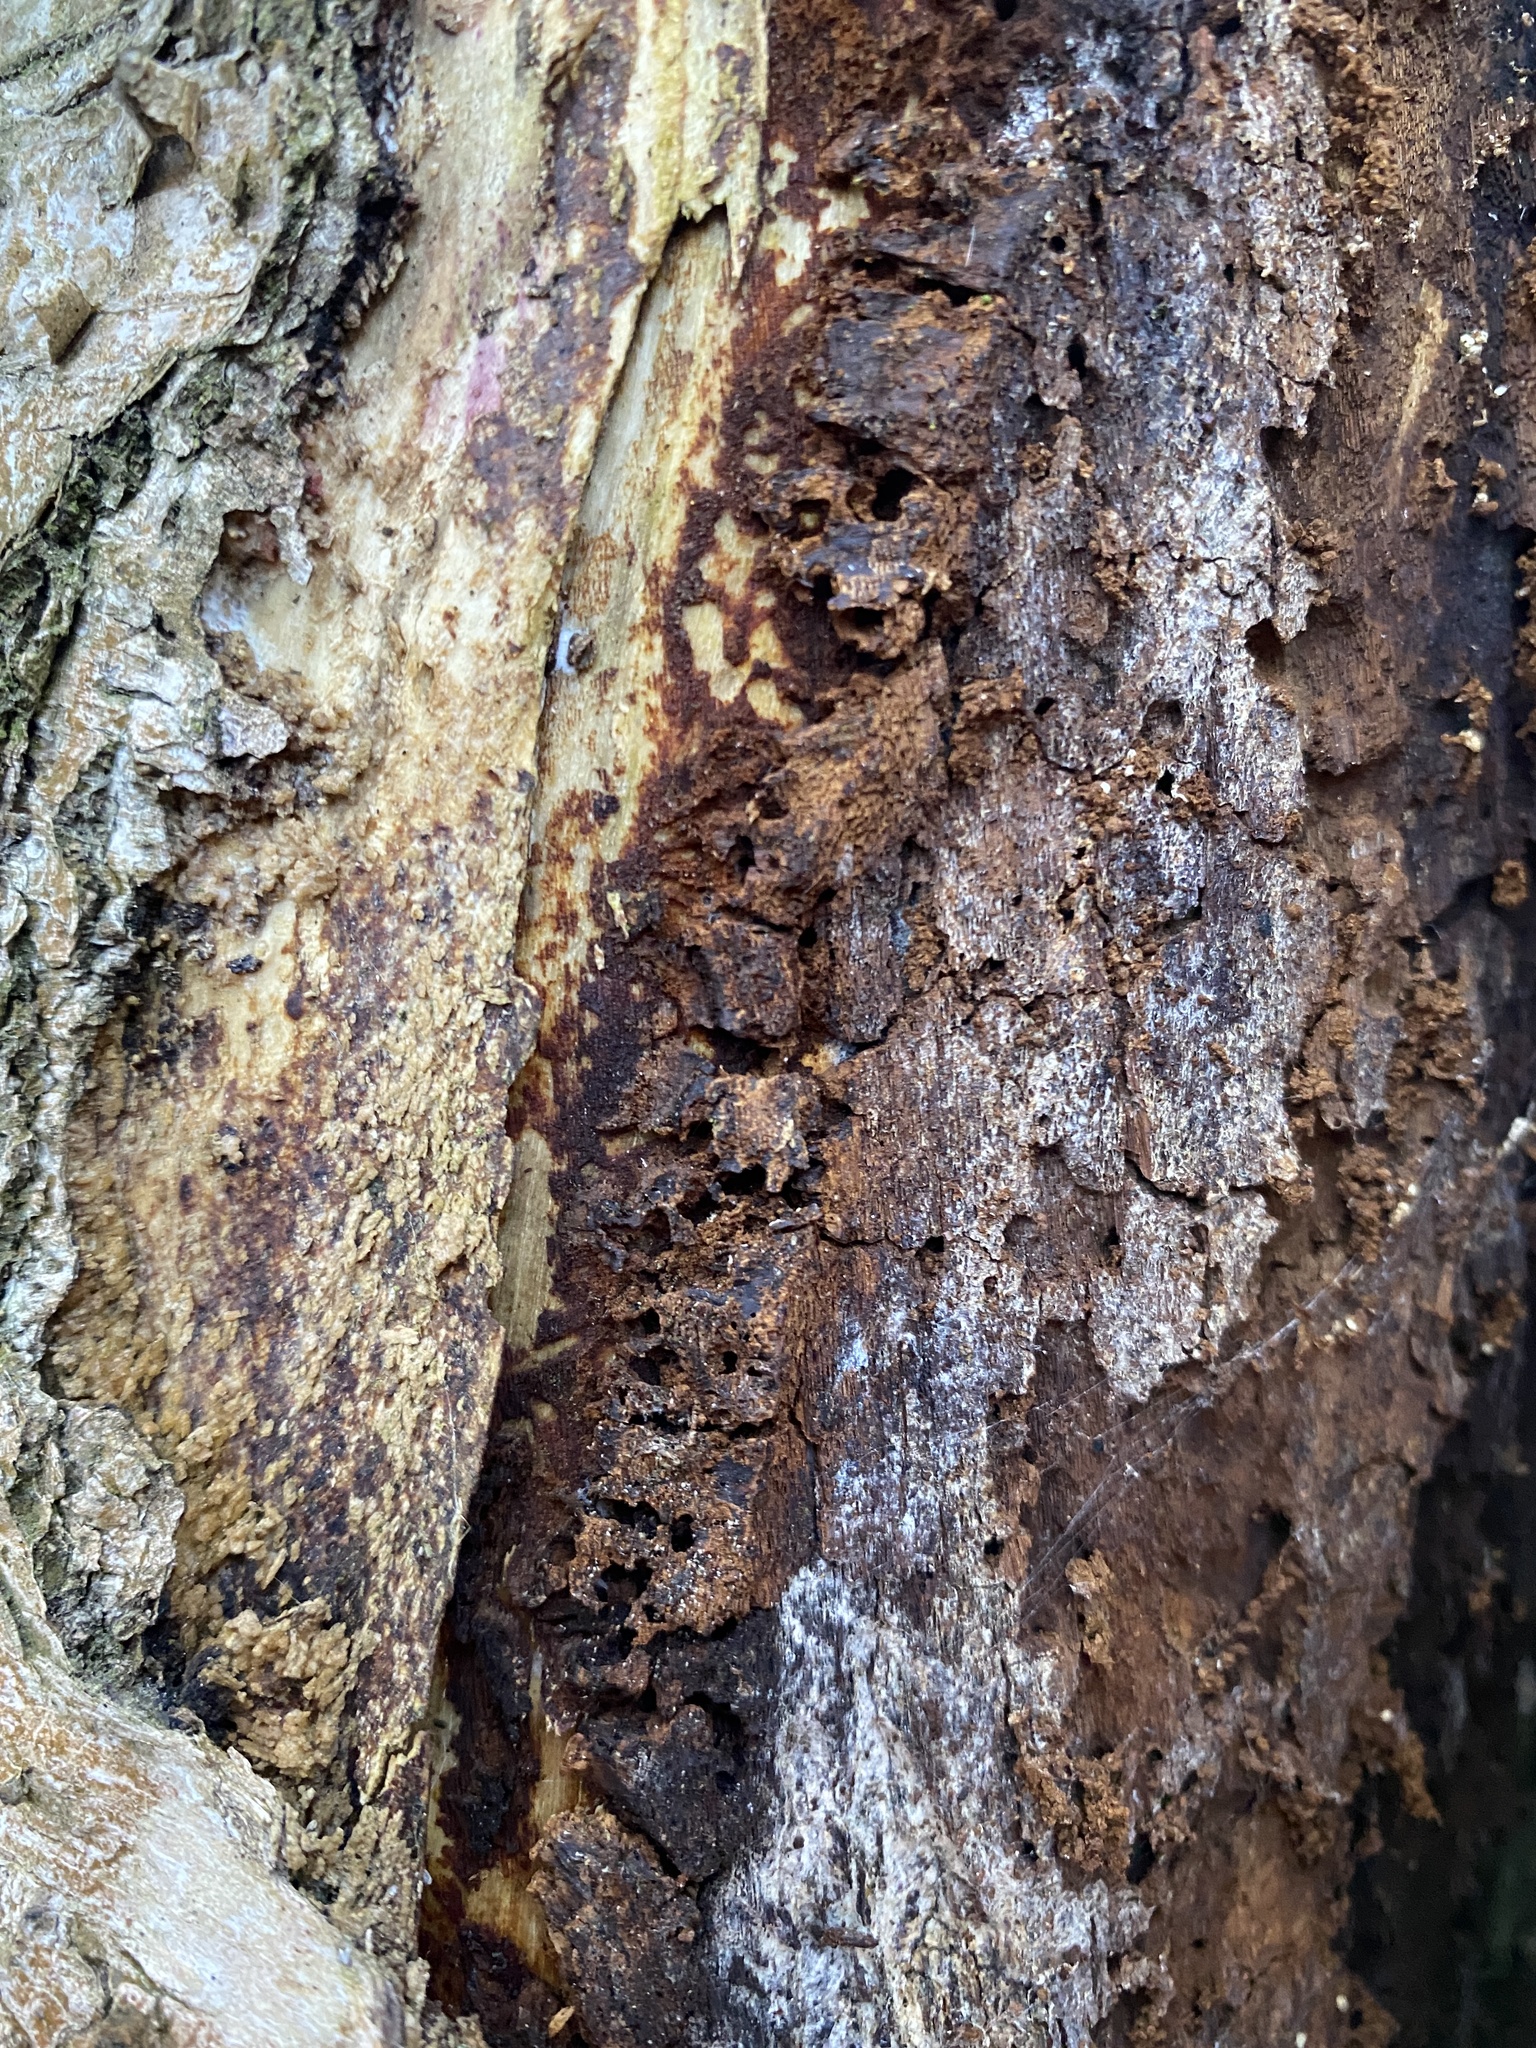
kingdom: Fungi
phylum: Basidiomycota
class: Agaricomycetes
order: Hymenochaetales
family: Hymenochaetaceae
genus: Inonotus
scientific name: Inonotus obliquus
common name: Chaga
